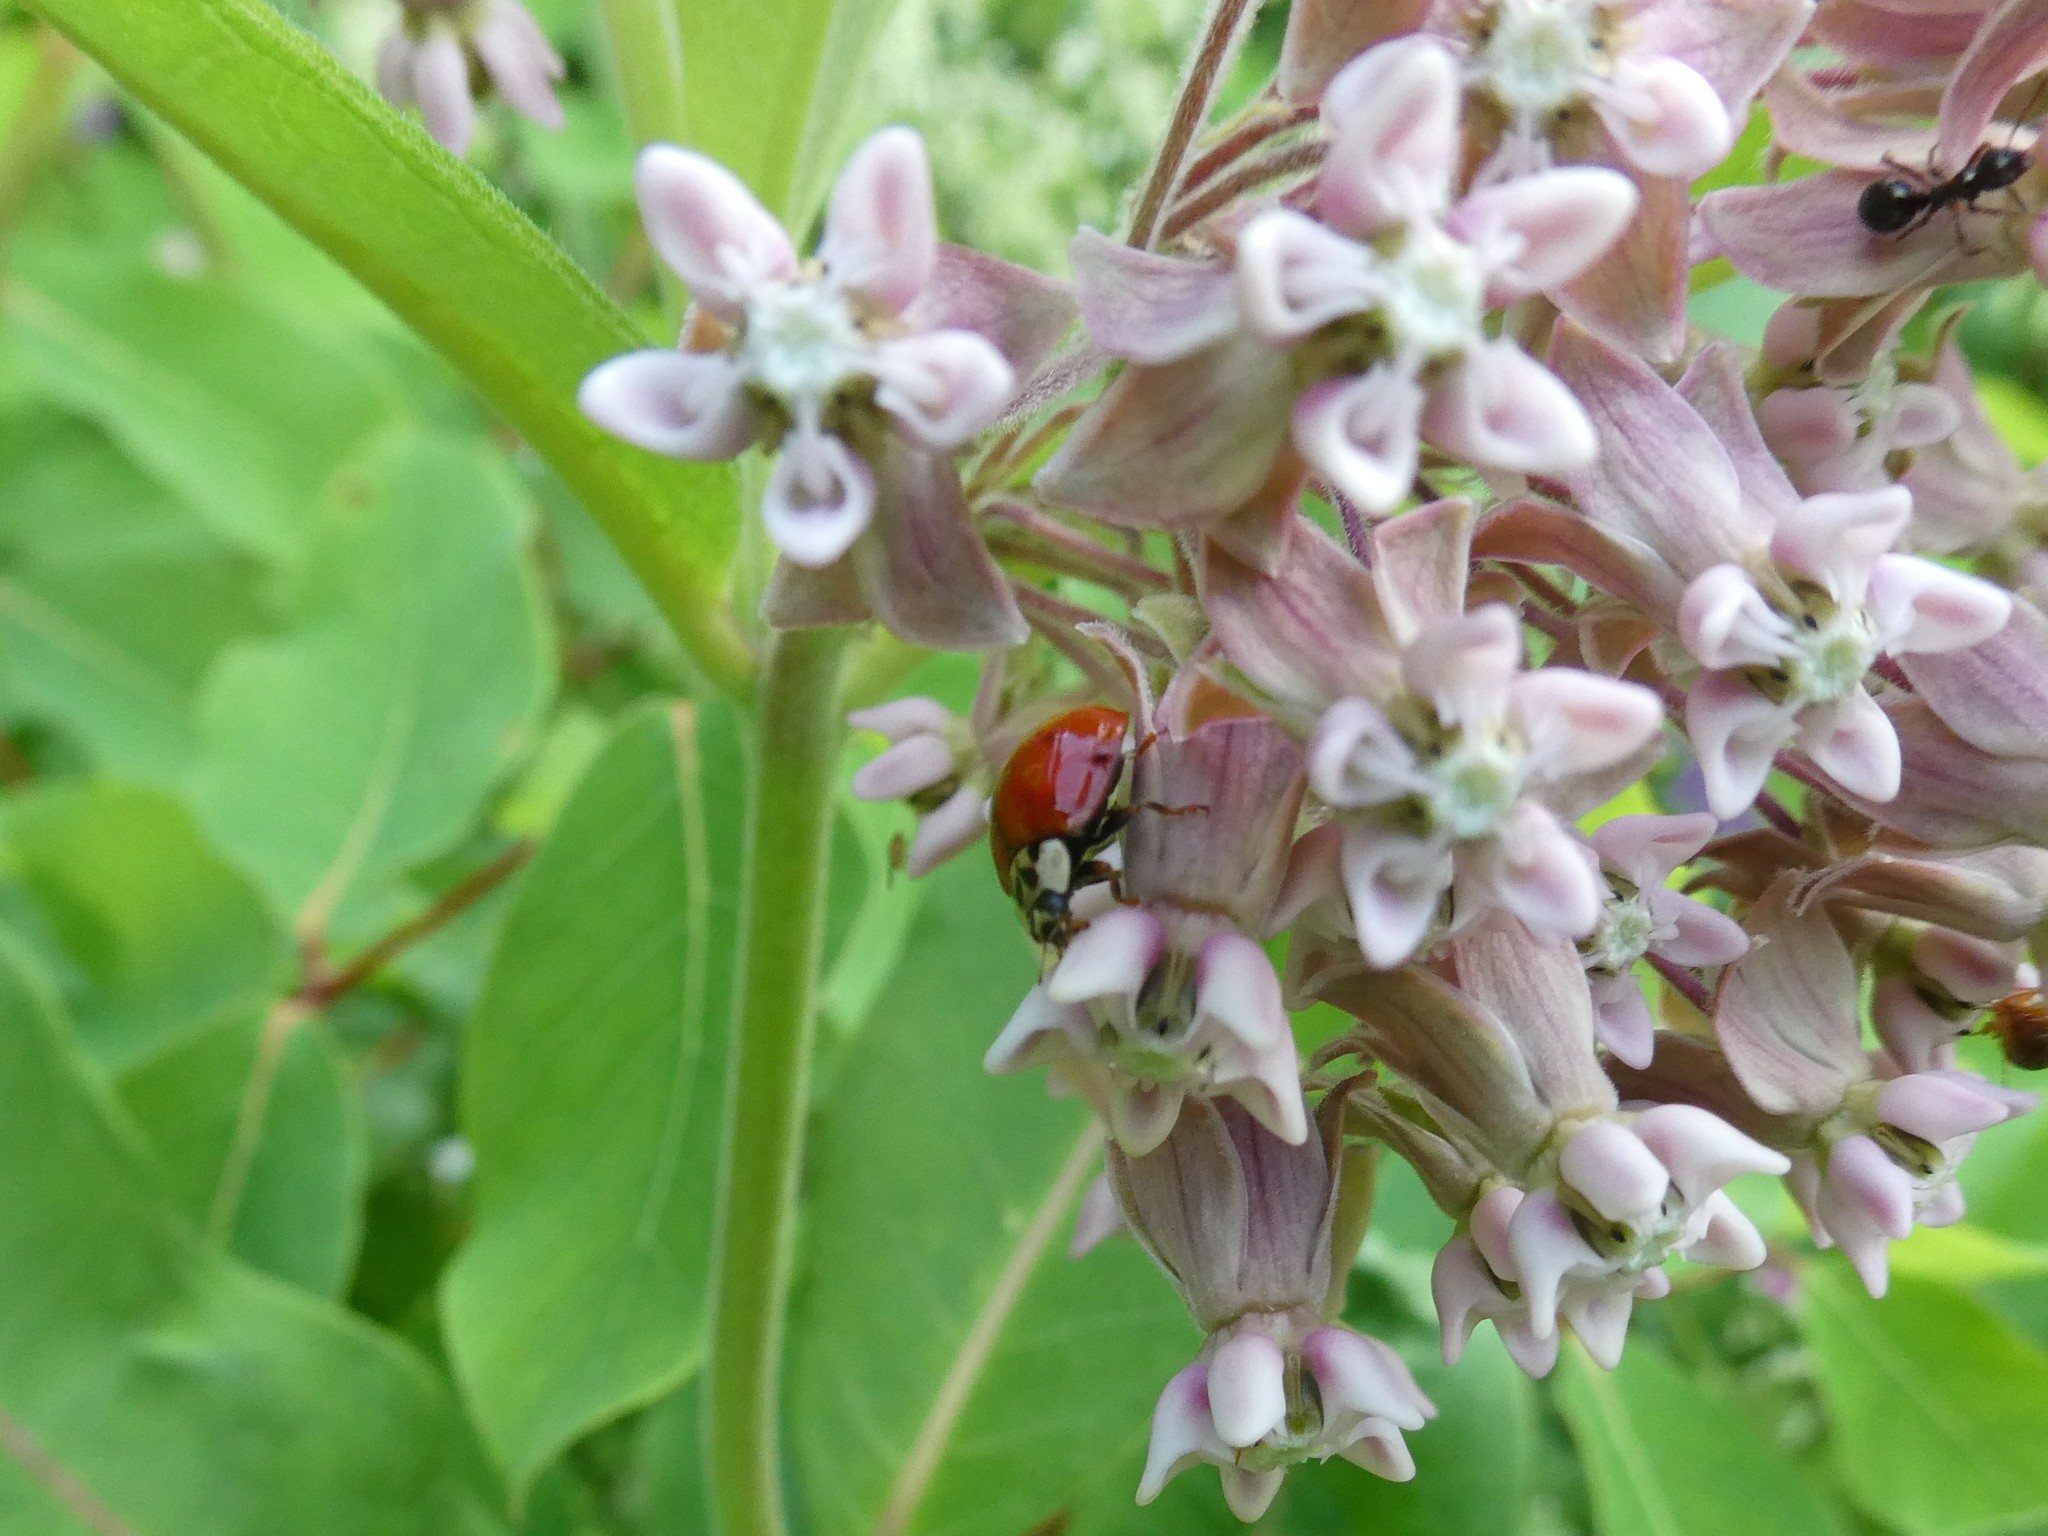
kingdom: Plantae
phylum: Tracheophyta
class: Magnoliopsida
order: Gentianales
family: Apocynaceae
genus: Asclepias
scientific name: Asclepias syriaca
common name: Common milkweed
